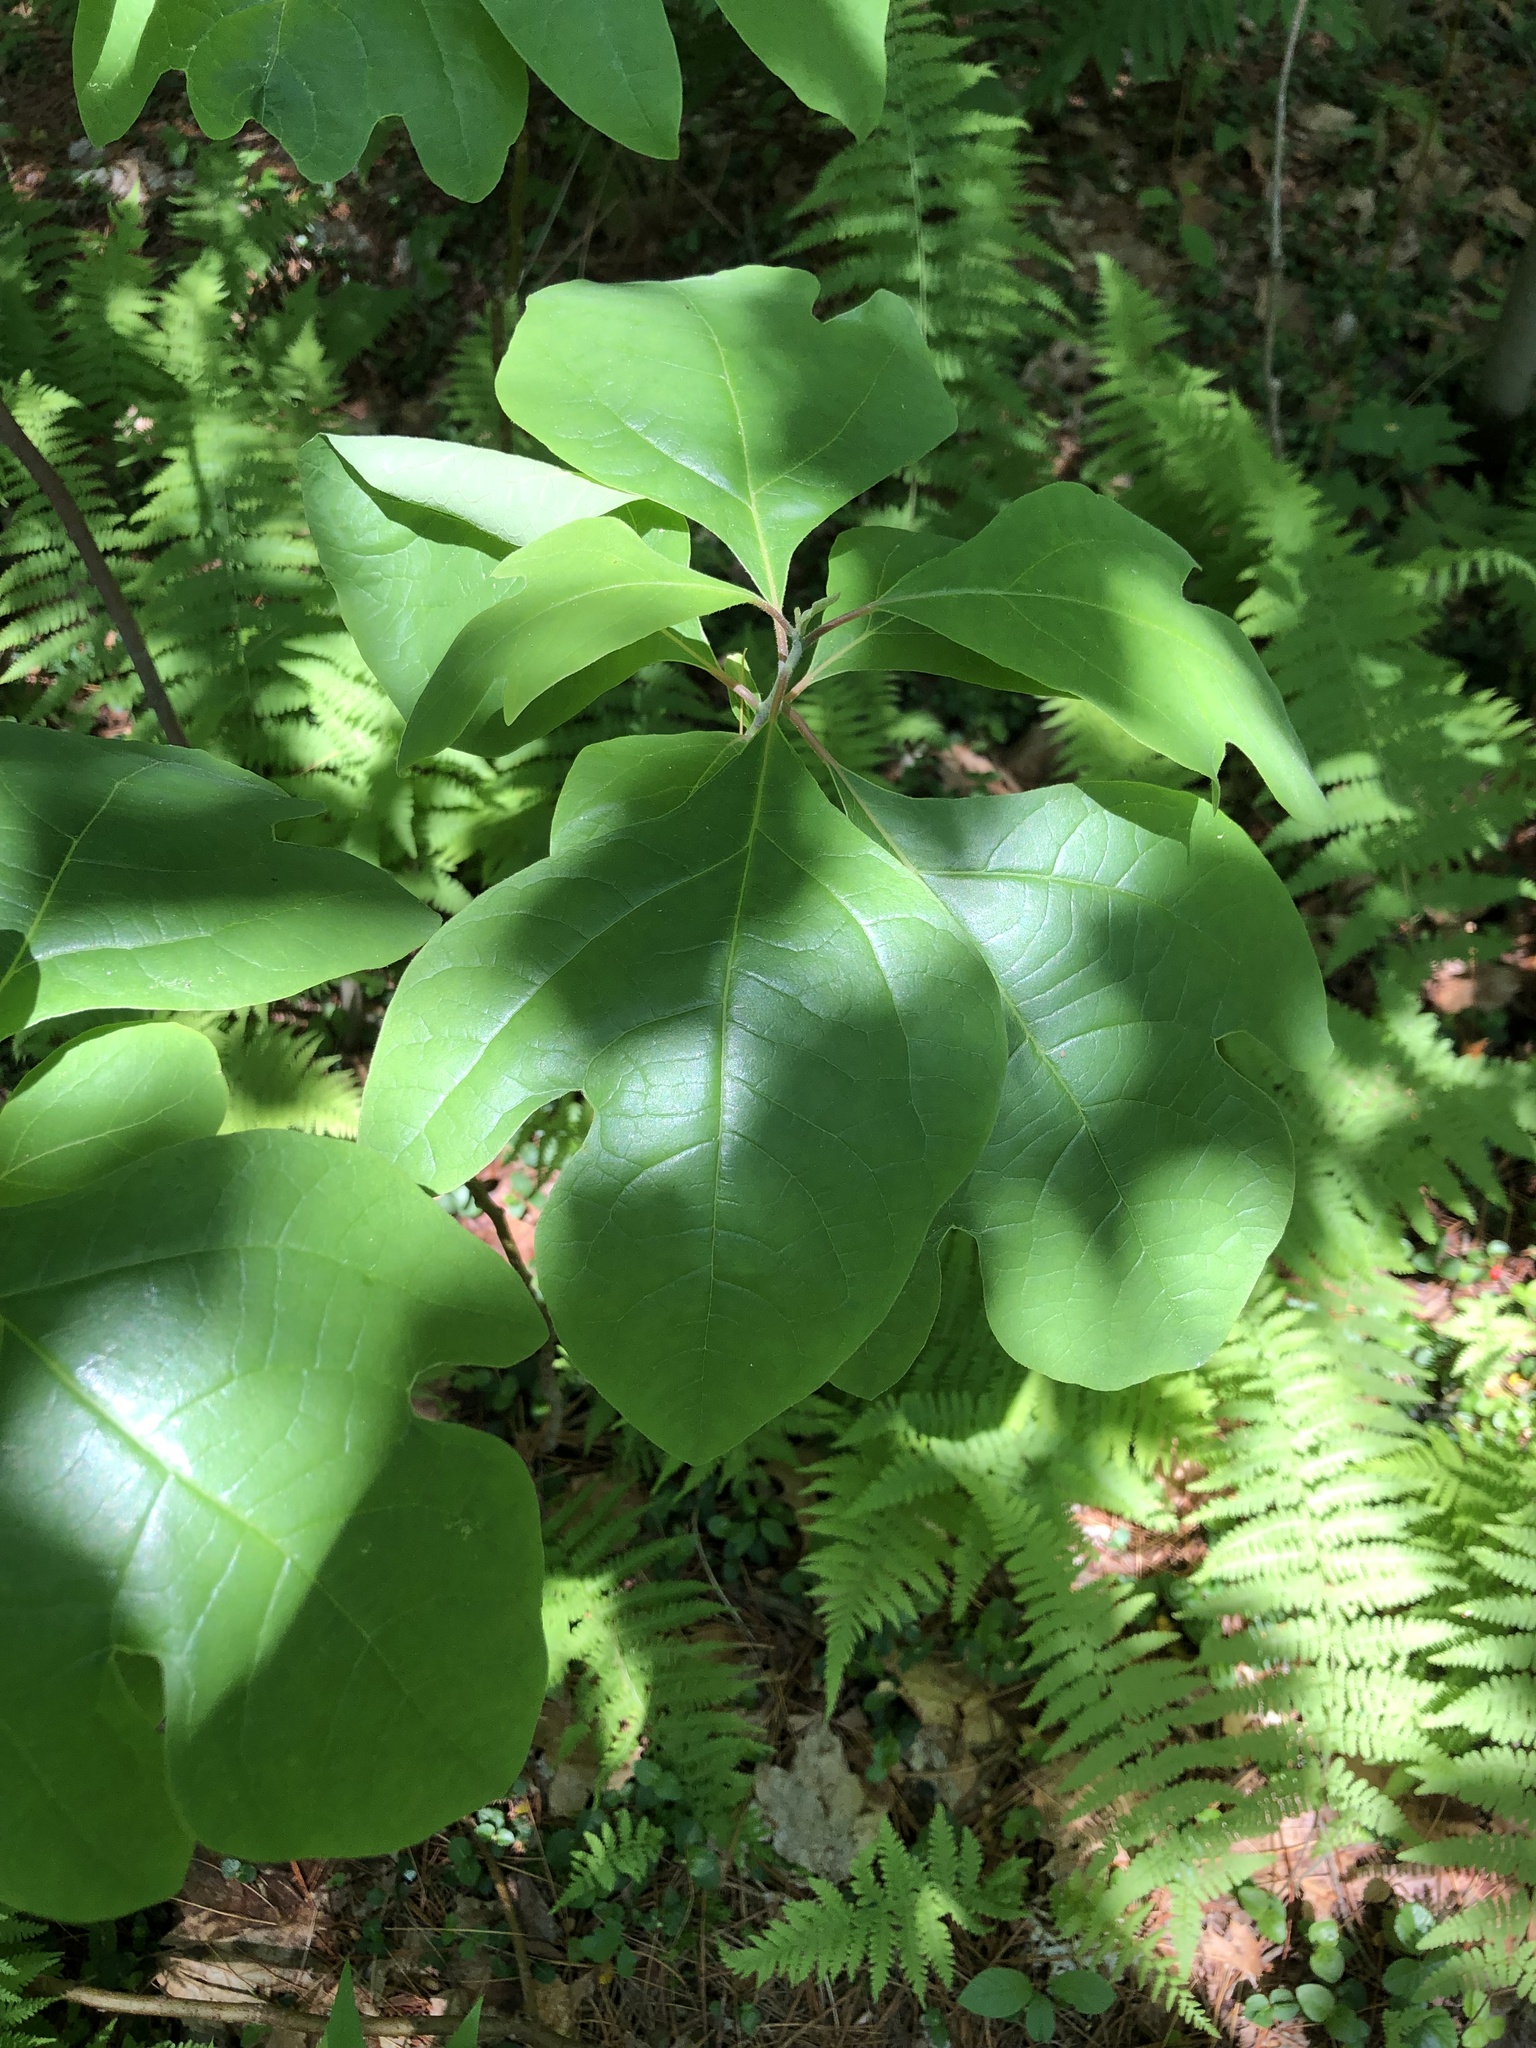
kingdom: Plantae
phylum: Tracheophyta
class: Magnoliopsida
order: Laurales
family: Lauraceae
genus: Sassafras
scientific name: Sassafras albidum
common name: Sassafras
